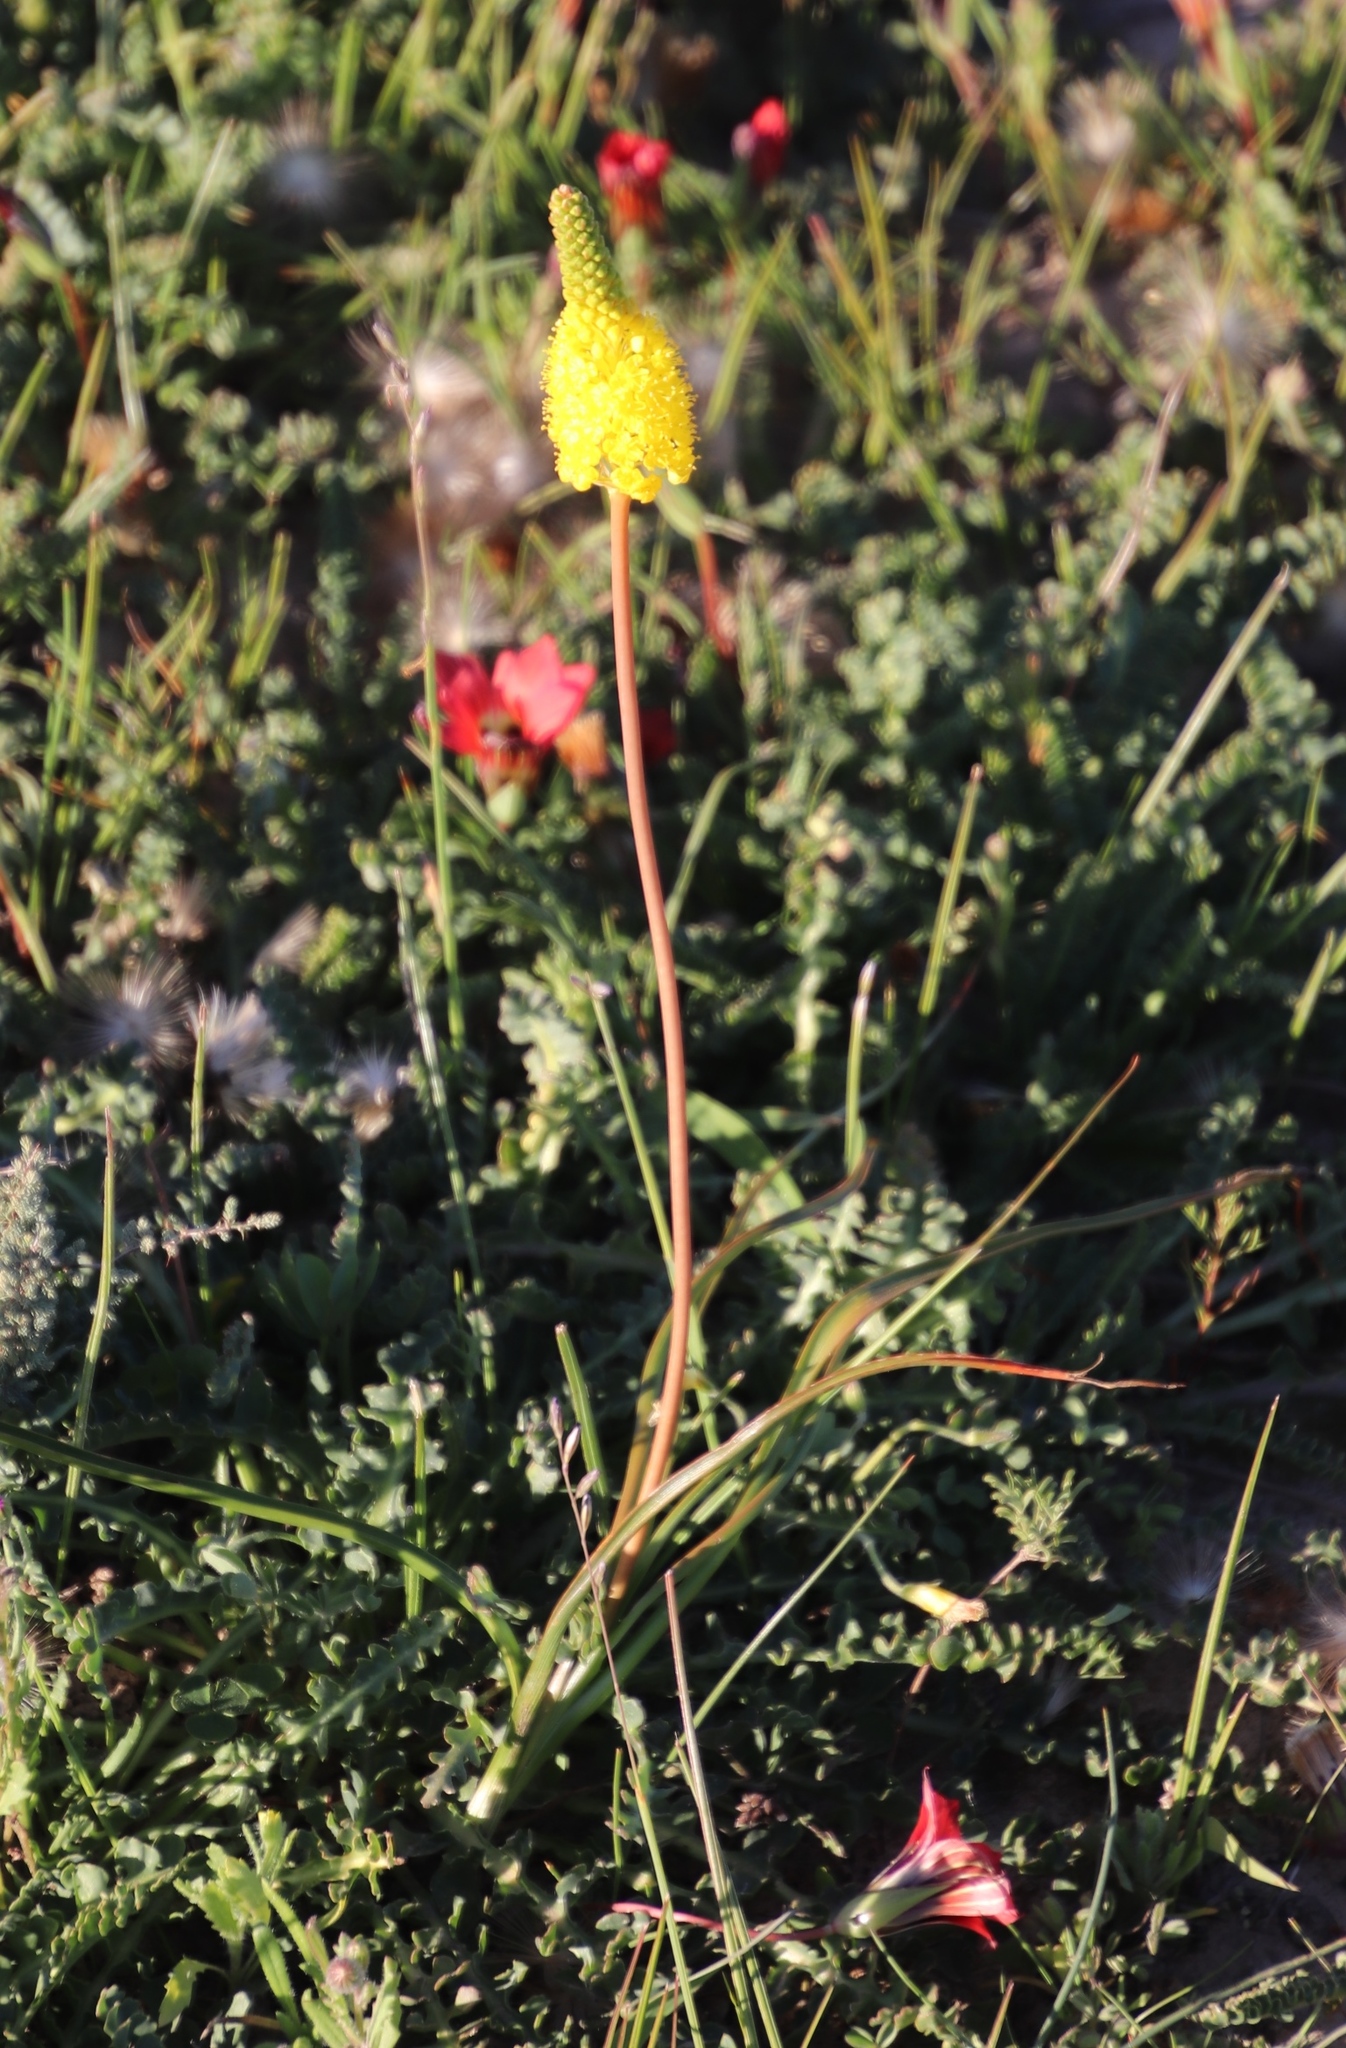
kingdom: Plantae
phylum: Tracheophyta
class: Liliopsida
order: Asparagales
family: Asphodelaceae
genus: Bulbinella
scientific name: Bulbinella nutans
